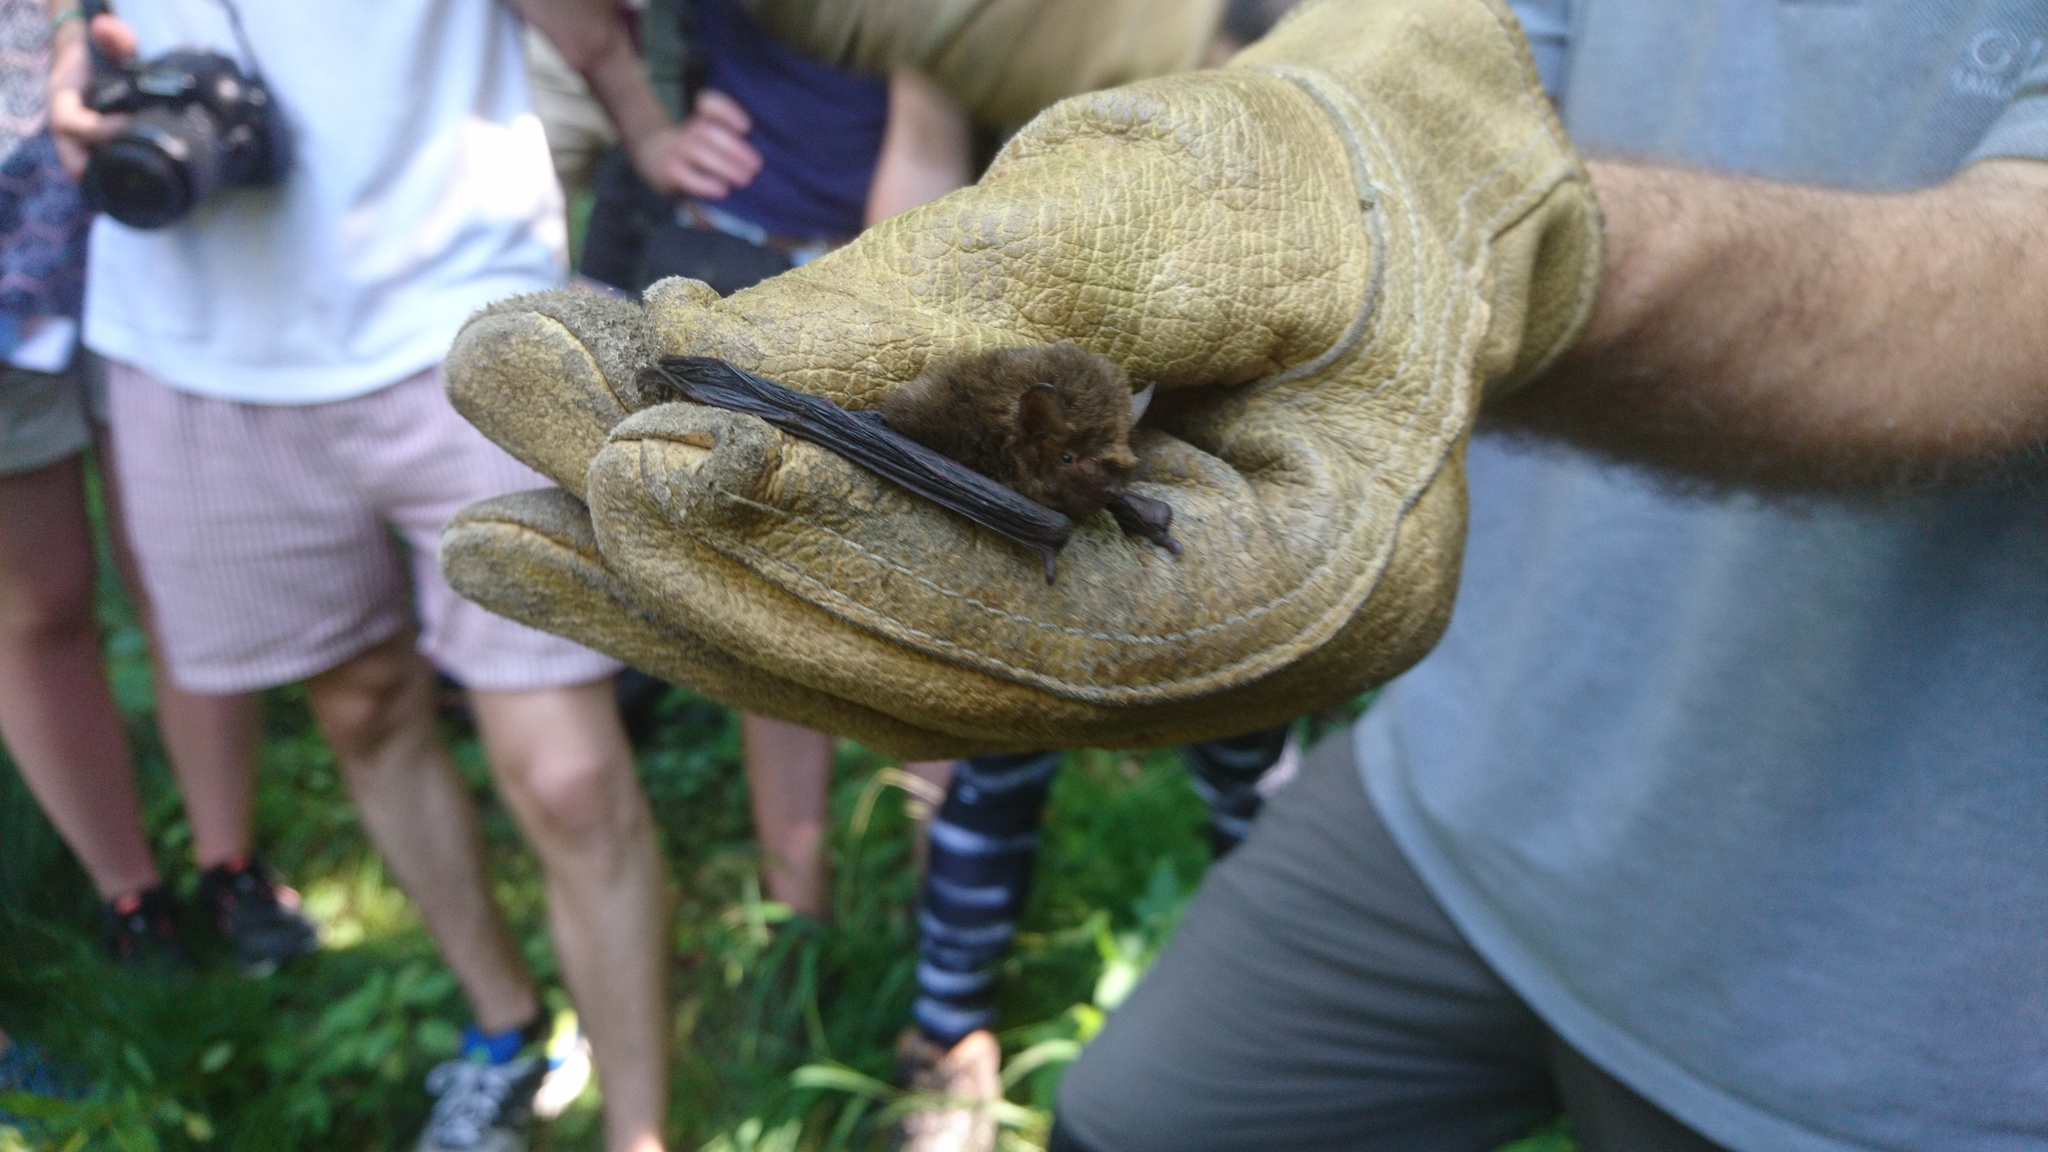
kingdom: Animalia
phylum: Chordata
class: Mammalia
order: Chiroptera
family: Vespertilionidae
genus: Pipistrellus
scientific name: Pipistrellus pygmaeus
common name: Soprano pipistrelle
